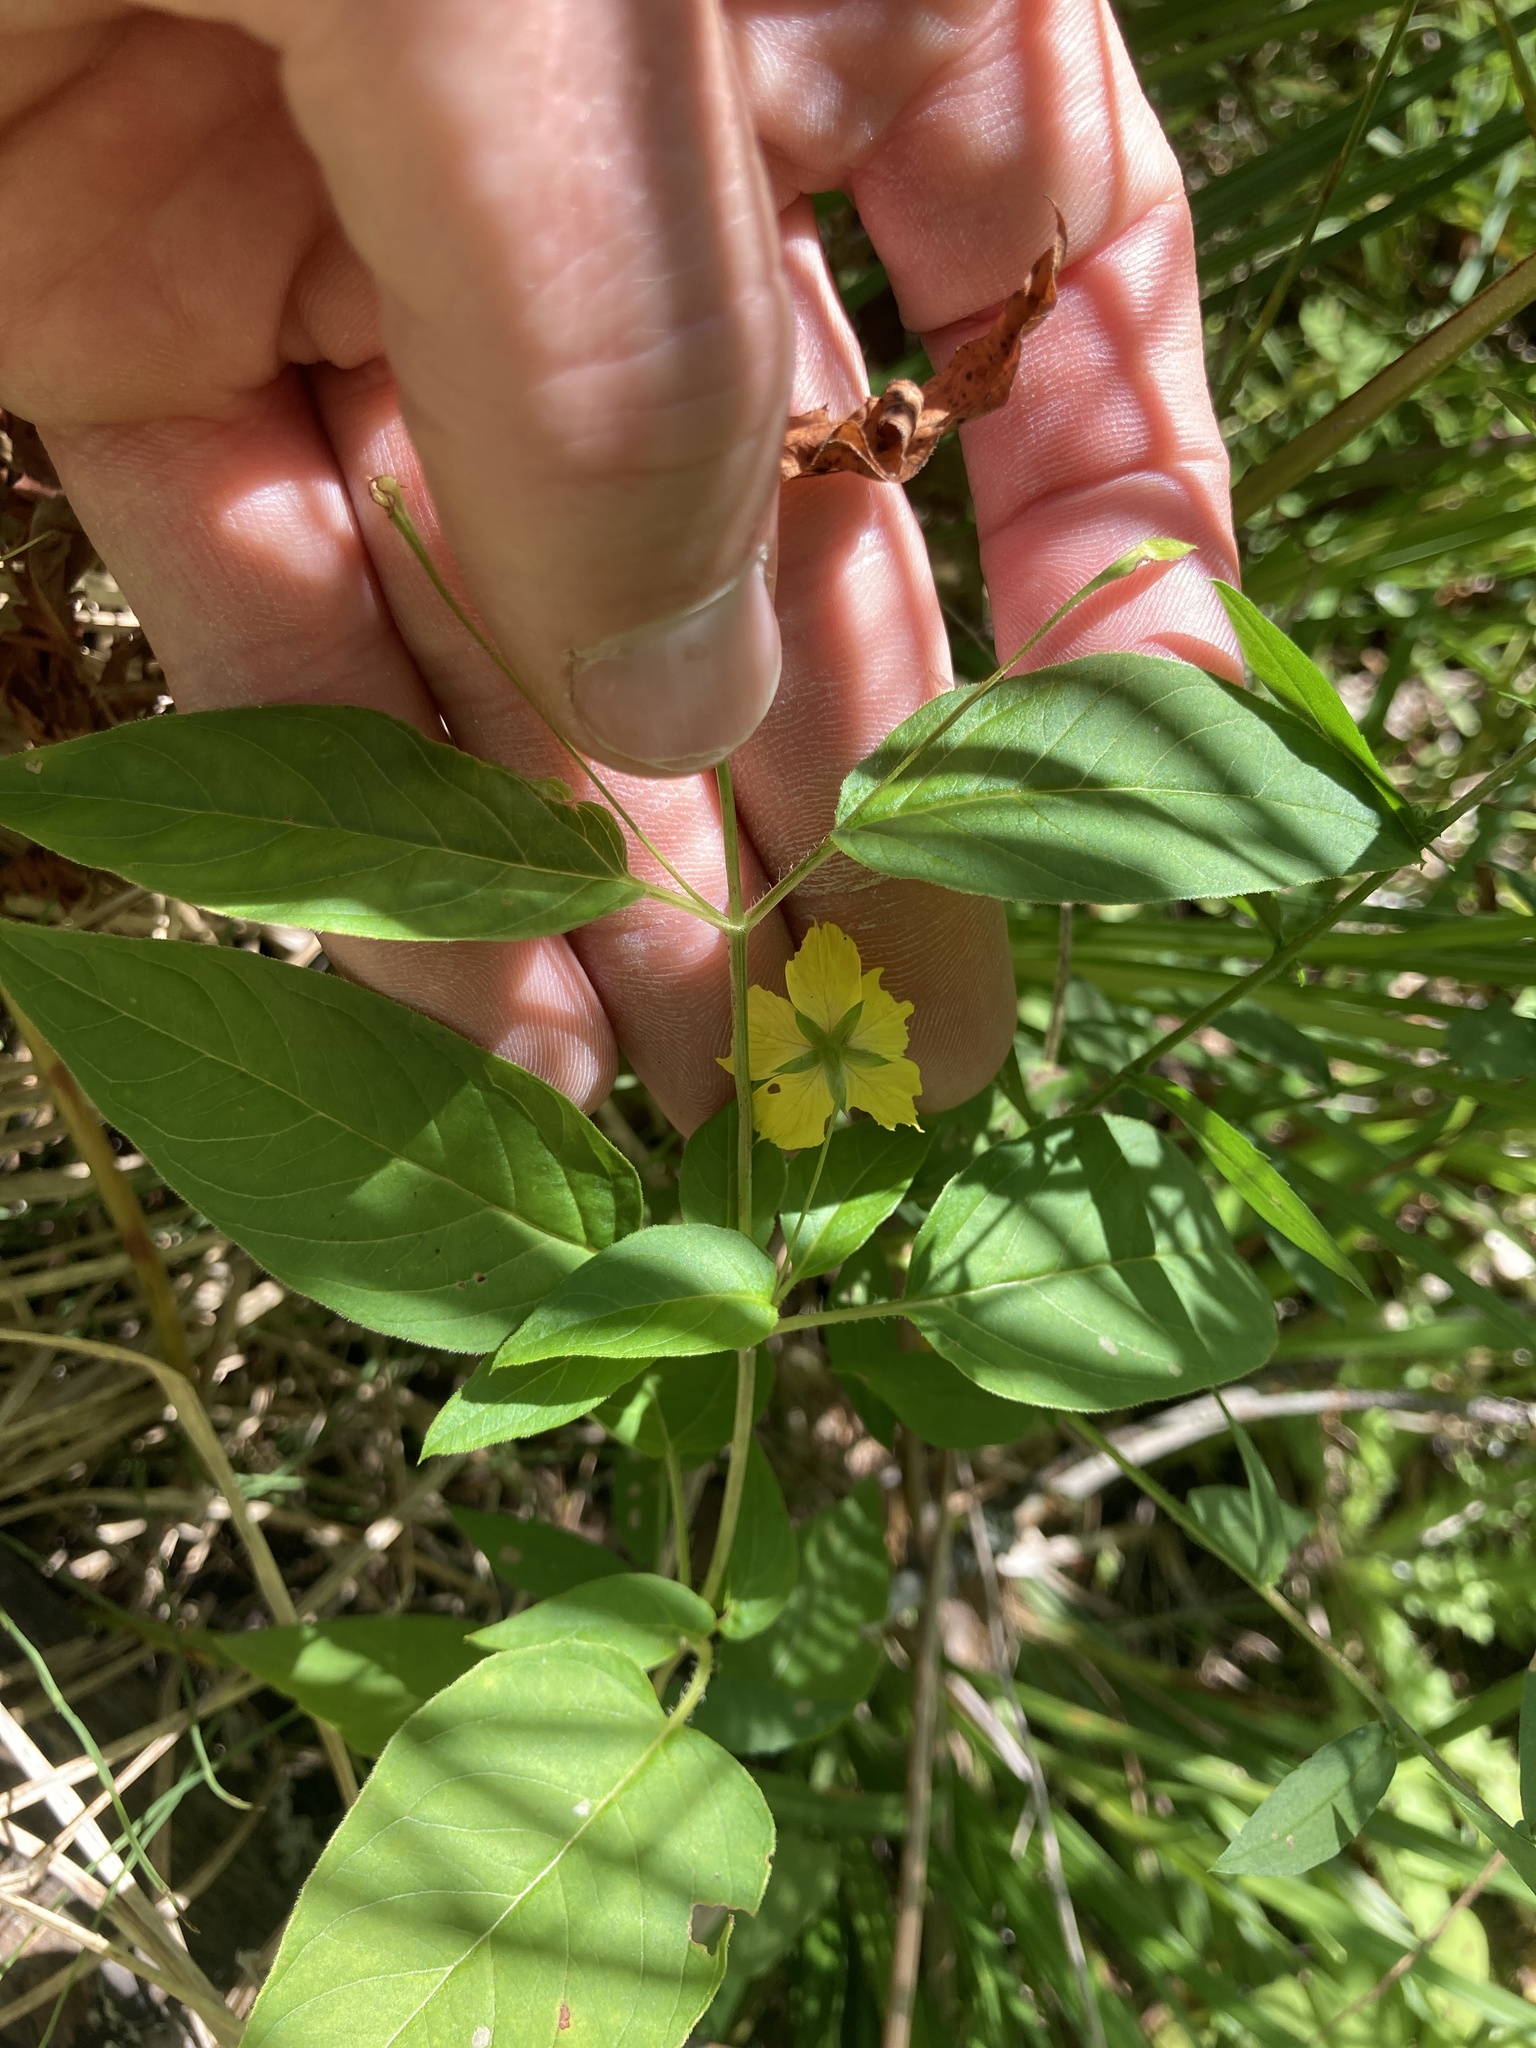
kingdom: Plantae
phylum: Tracheophyta
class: Magnoliopsida
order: Ericales
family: Primulaceae
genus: Lysimachia
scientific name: Lysimachia ciliata
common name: Fringed loosestrife
